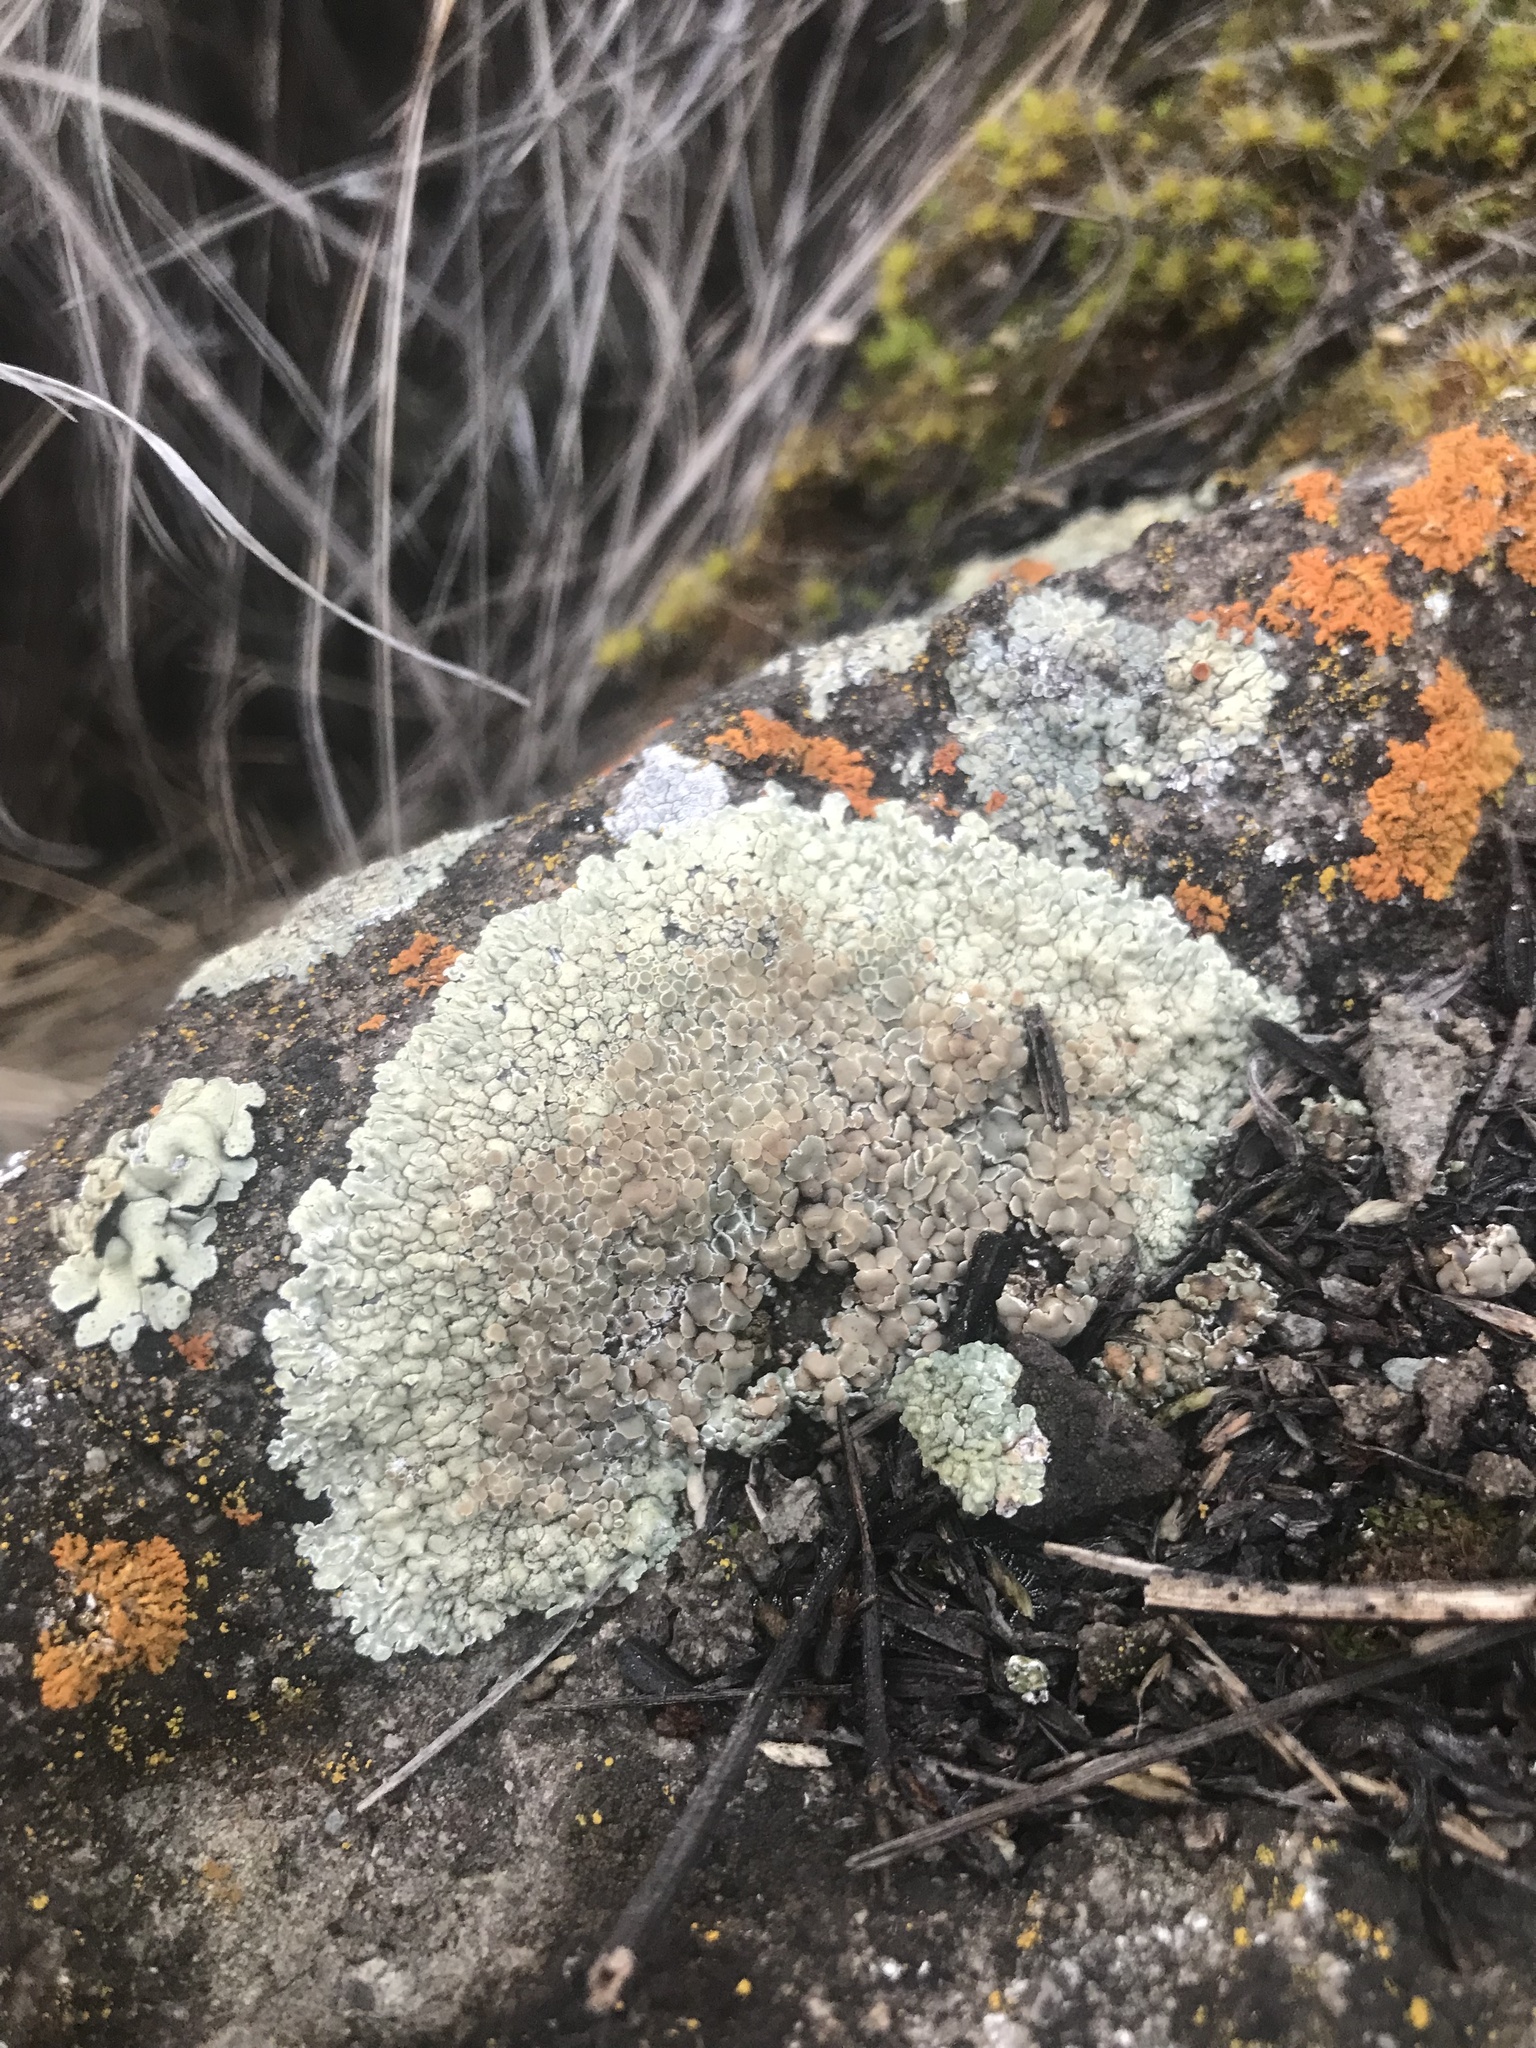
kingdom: Fungi
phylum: Ascomycota
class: Lecanoromycetes
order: Lecanorales
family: Lecanoraceae
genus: Protoparmeliopsis
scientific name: Protoparmeliopsis muralis
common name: Stonewall rim lichen
